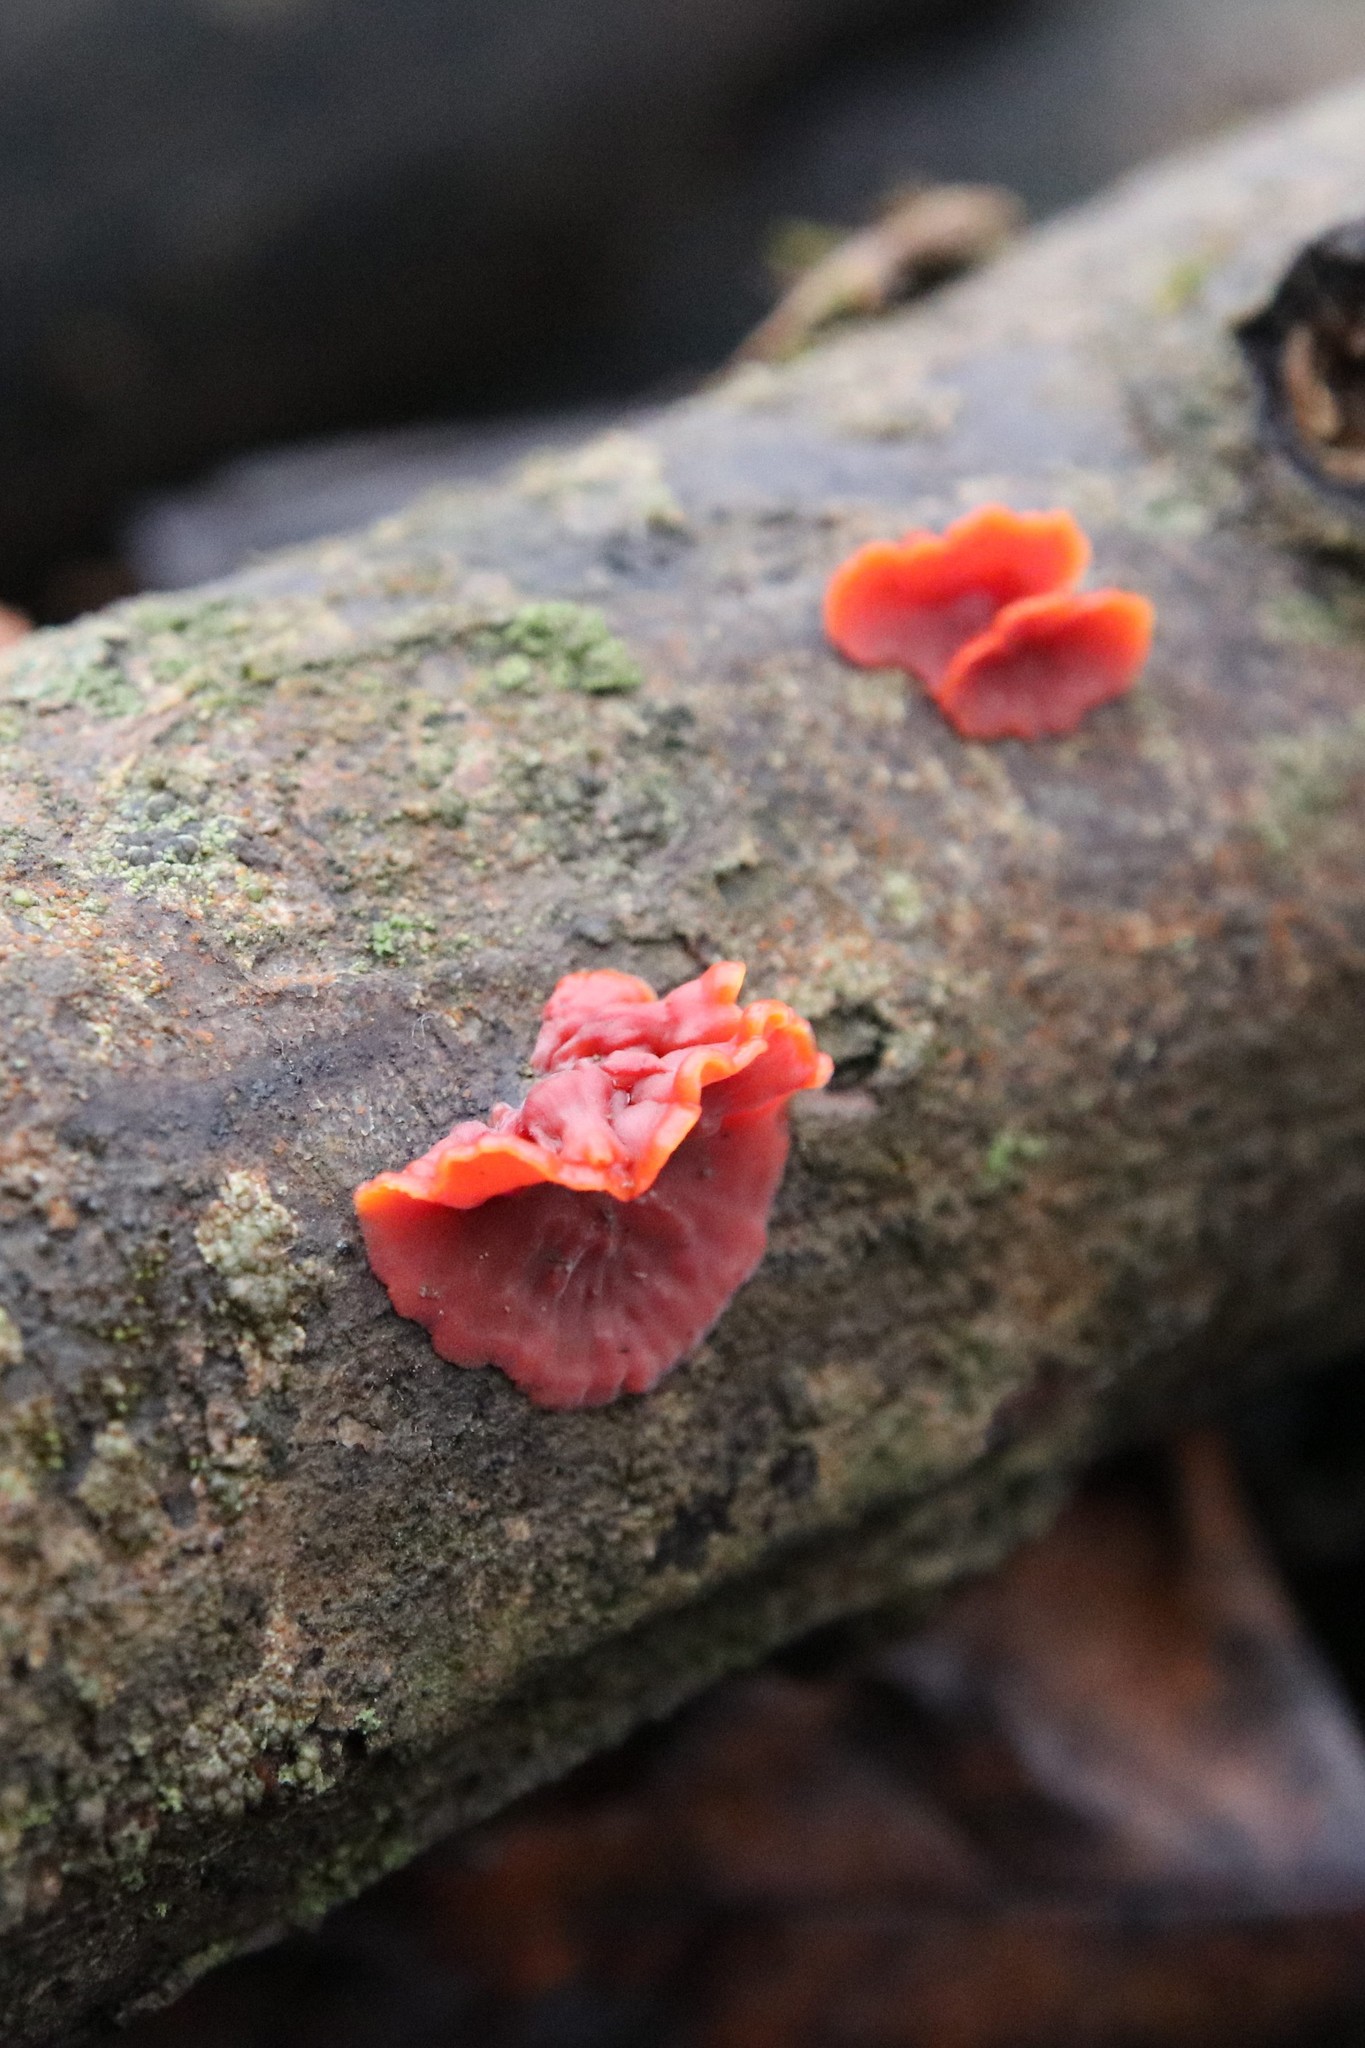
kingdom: Fungi
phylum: Basidiomycota
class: Agaricomycetes
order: Corticiales
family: Vuilleminiaceae
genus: Cytidia
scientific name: Cytidia salicina
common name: Scarlet splash
